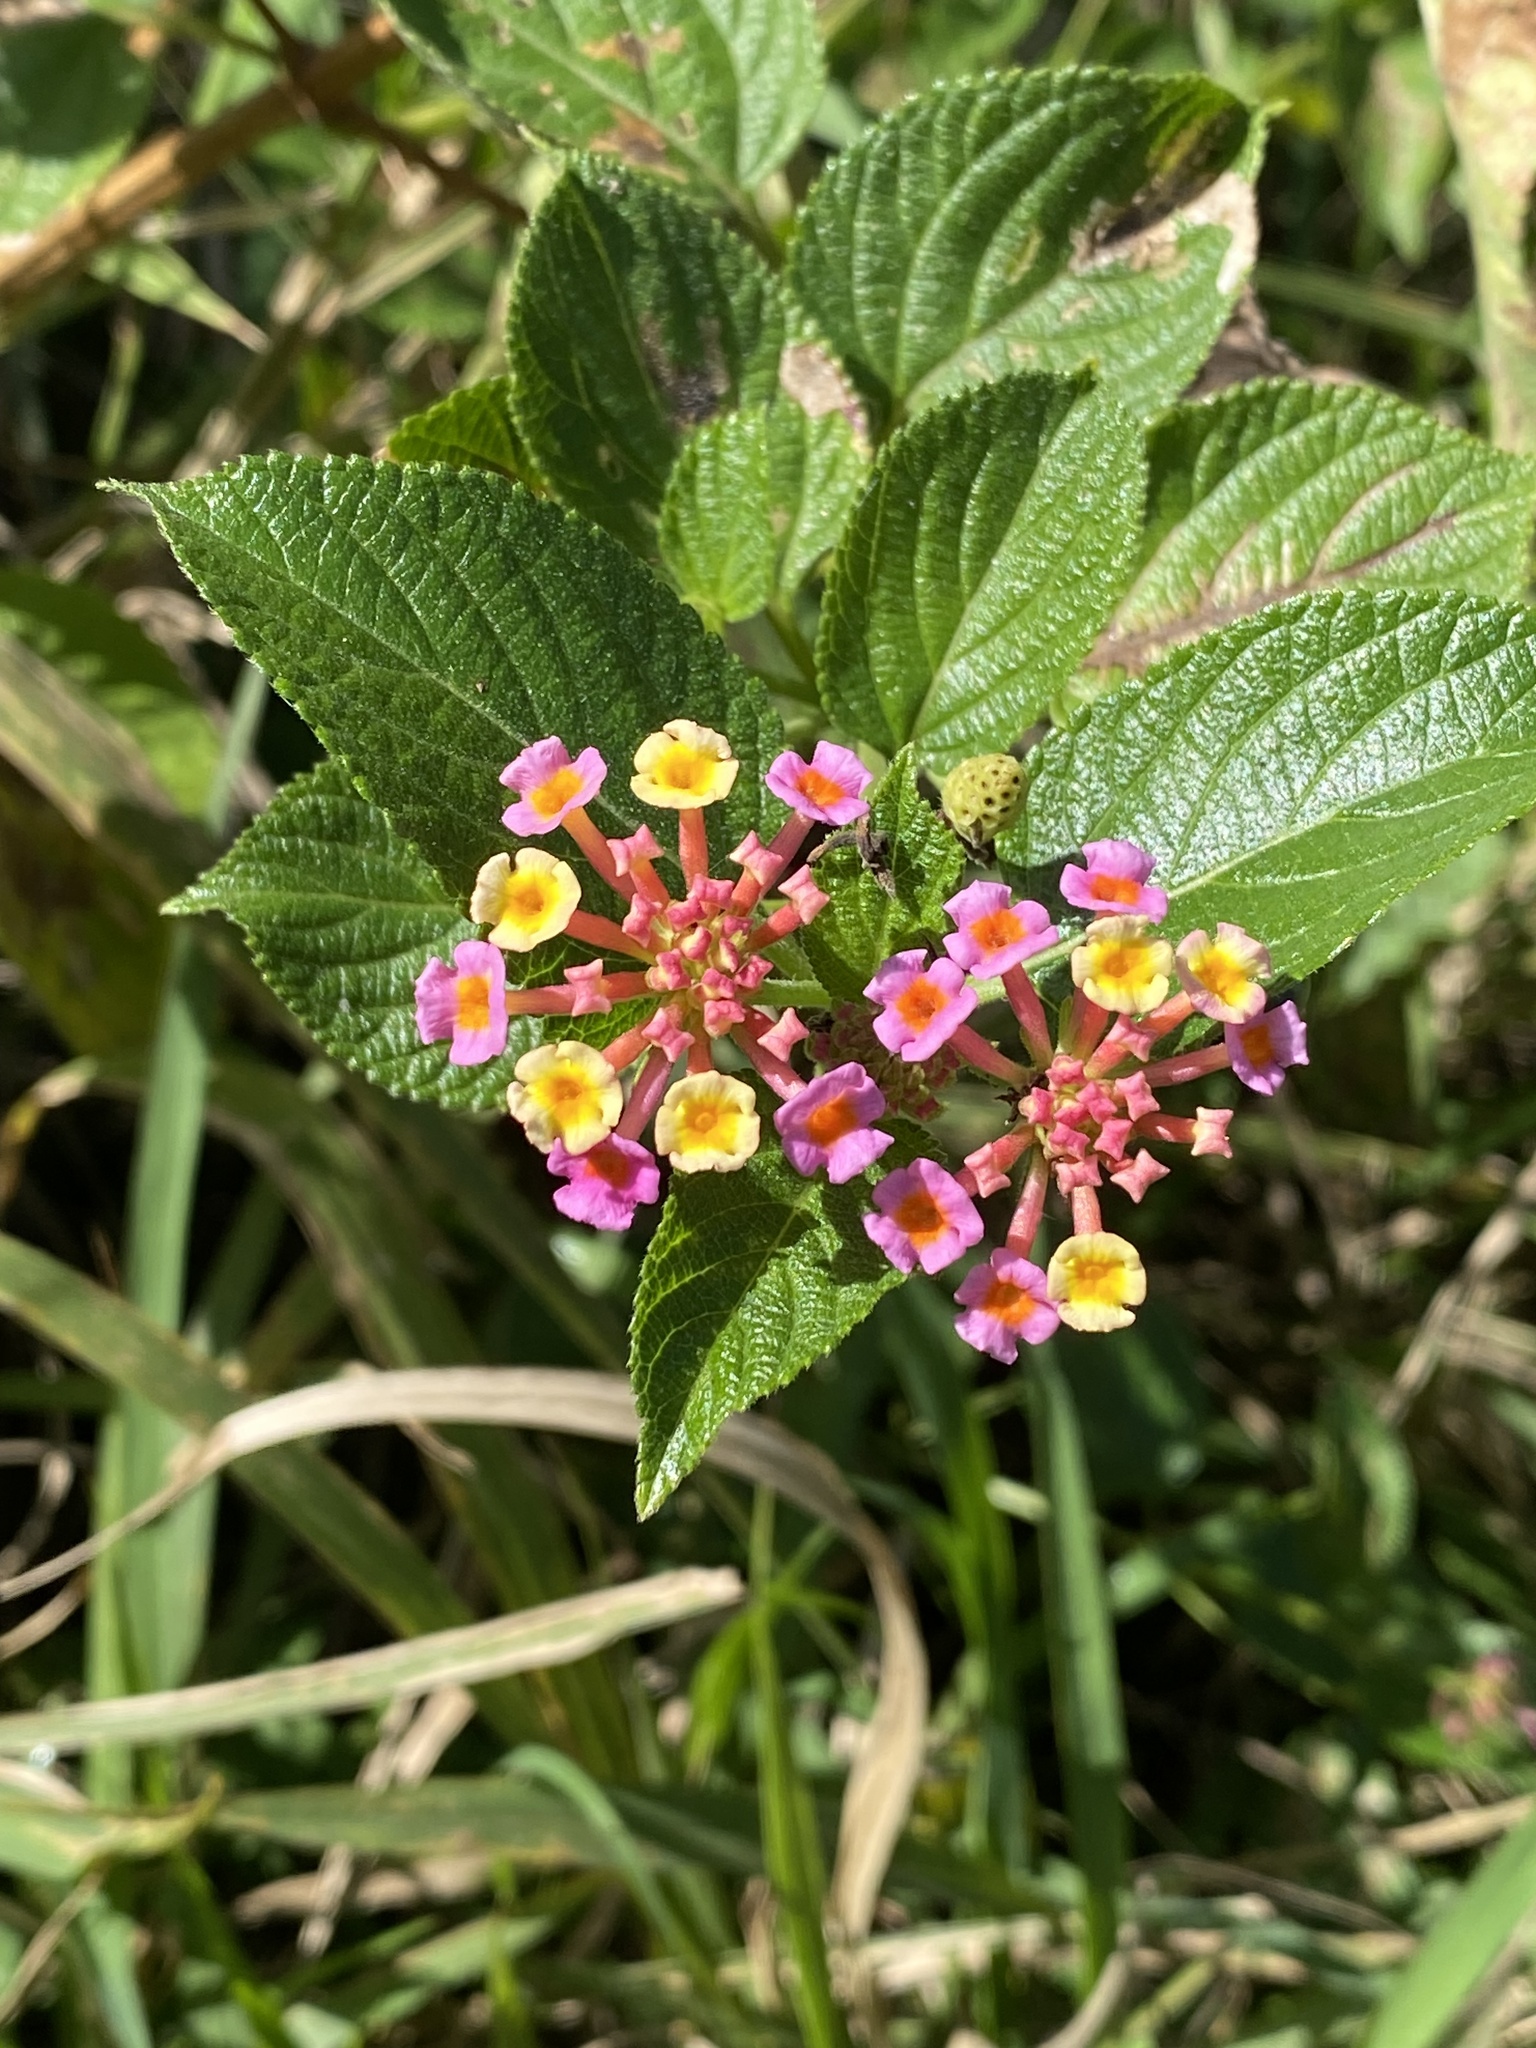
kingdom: Plantae
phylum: Tracheophyta
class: Magnoliopsida
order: Lamiales
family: Verbenaceae
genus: Lantana
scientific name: Lantana camara
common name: Lantana
